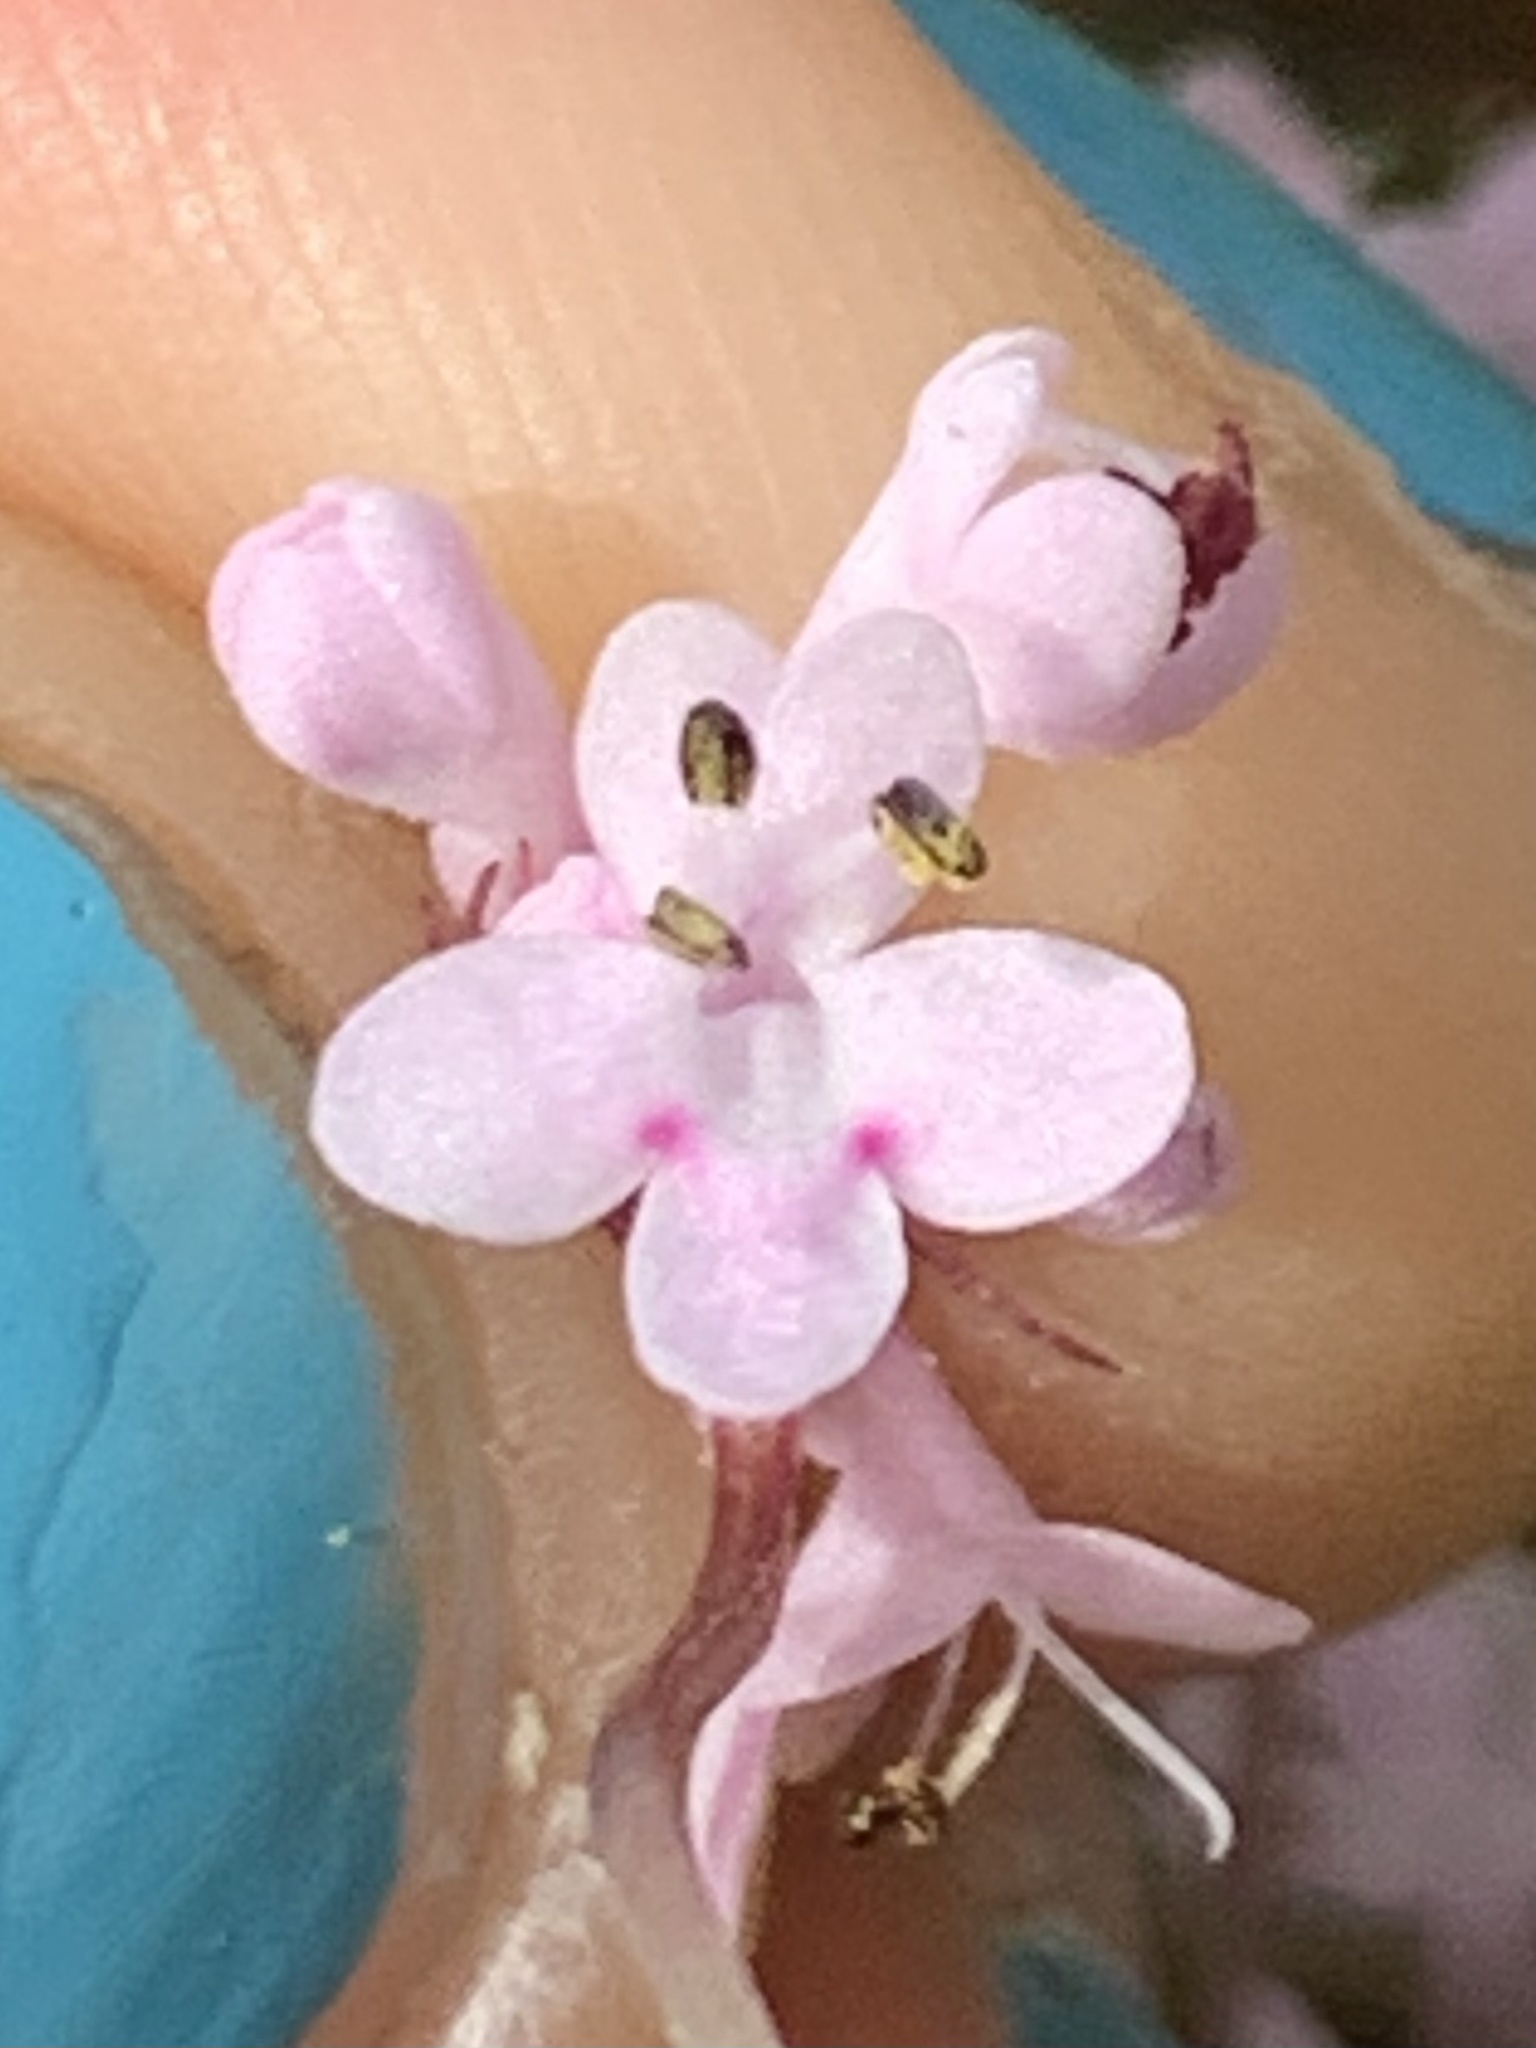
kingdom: Plantae
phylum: Tracheophyta
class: Magnoliopsida
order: Dipsacales
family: Caprifoliaceae
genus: Plectritis
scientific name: Plectritis brachystemon
